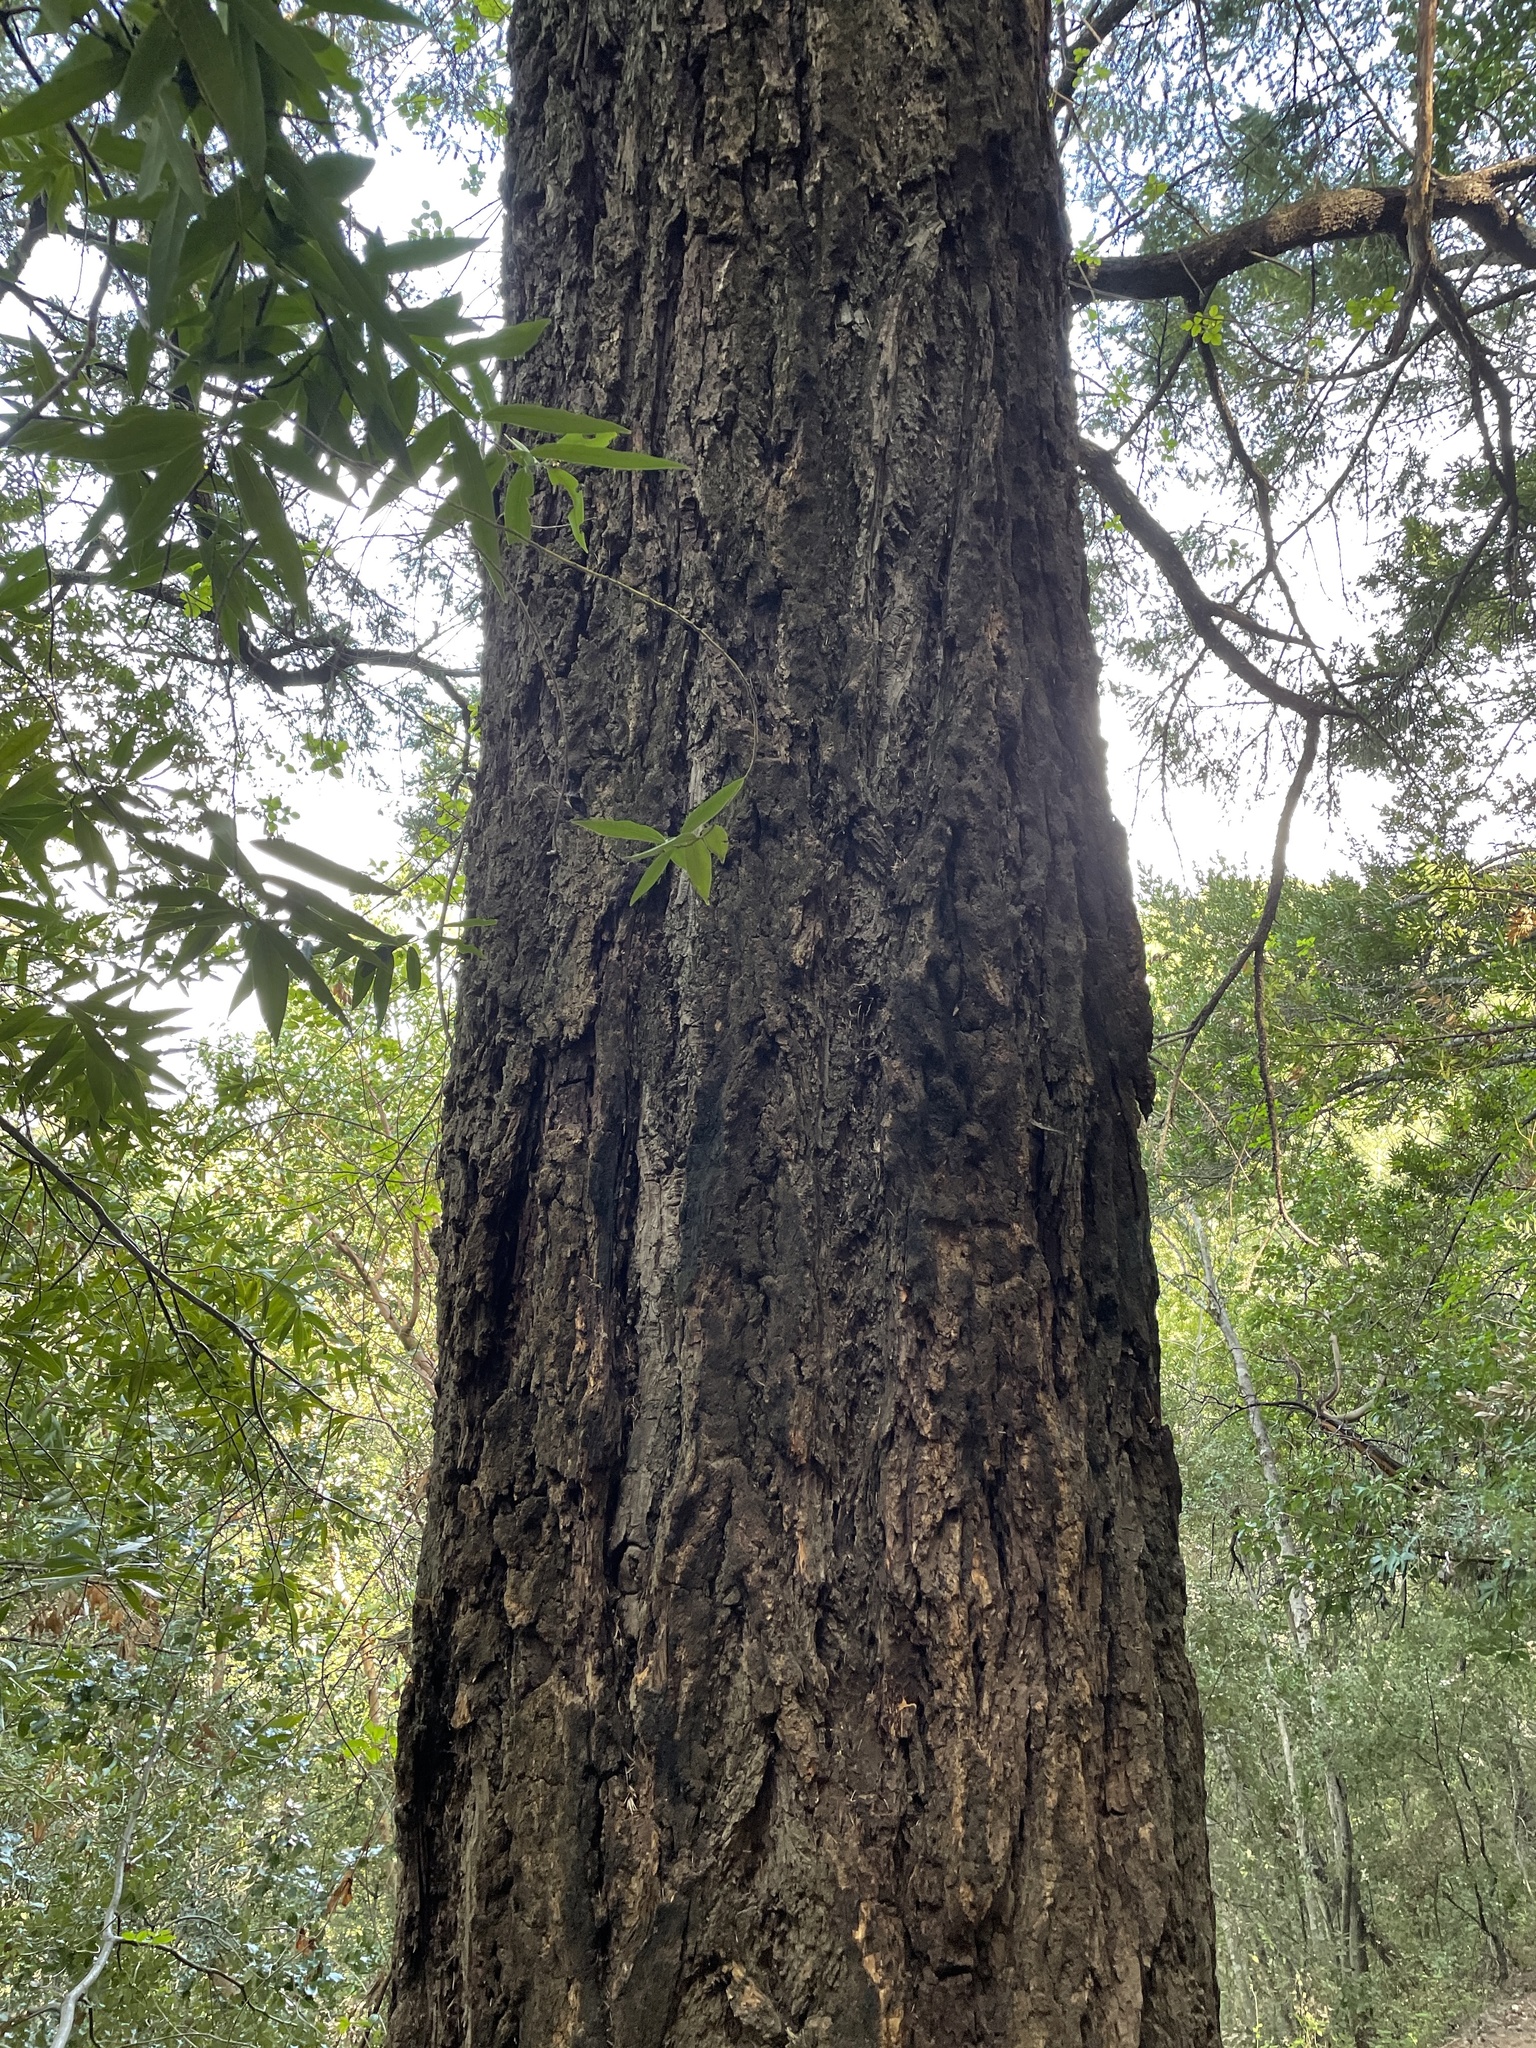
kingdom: Plantae
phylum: Tracheophyta
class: Pinopsida
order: Pinales
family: Cupressaceae
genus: Sequoia
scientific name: Sequoia sempervirens
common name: Coast redwood
